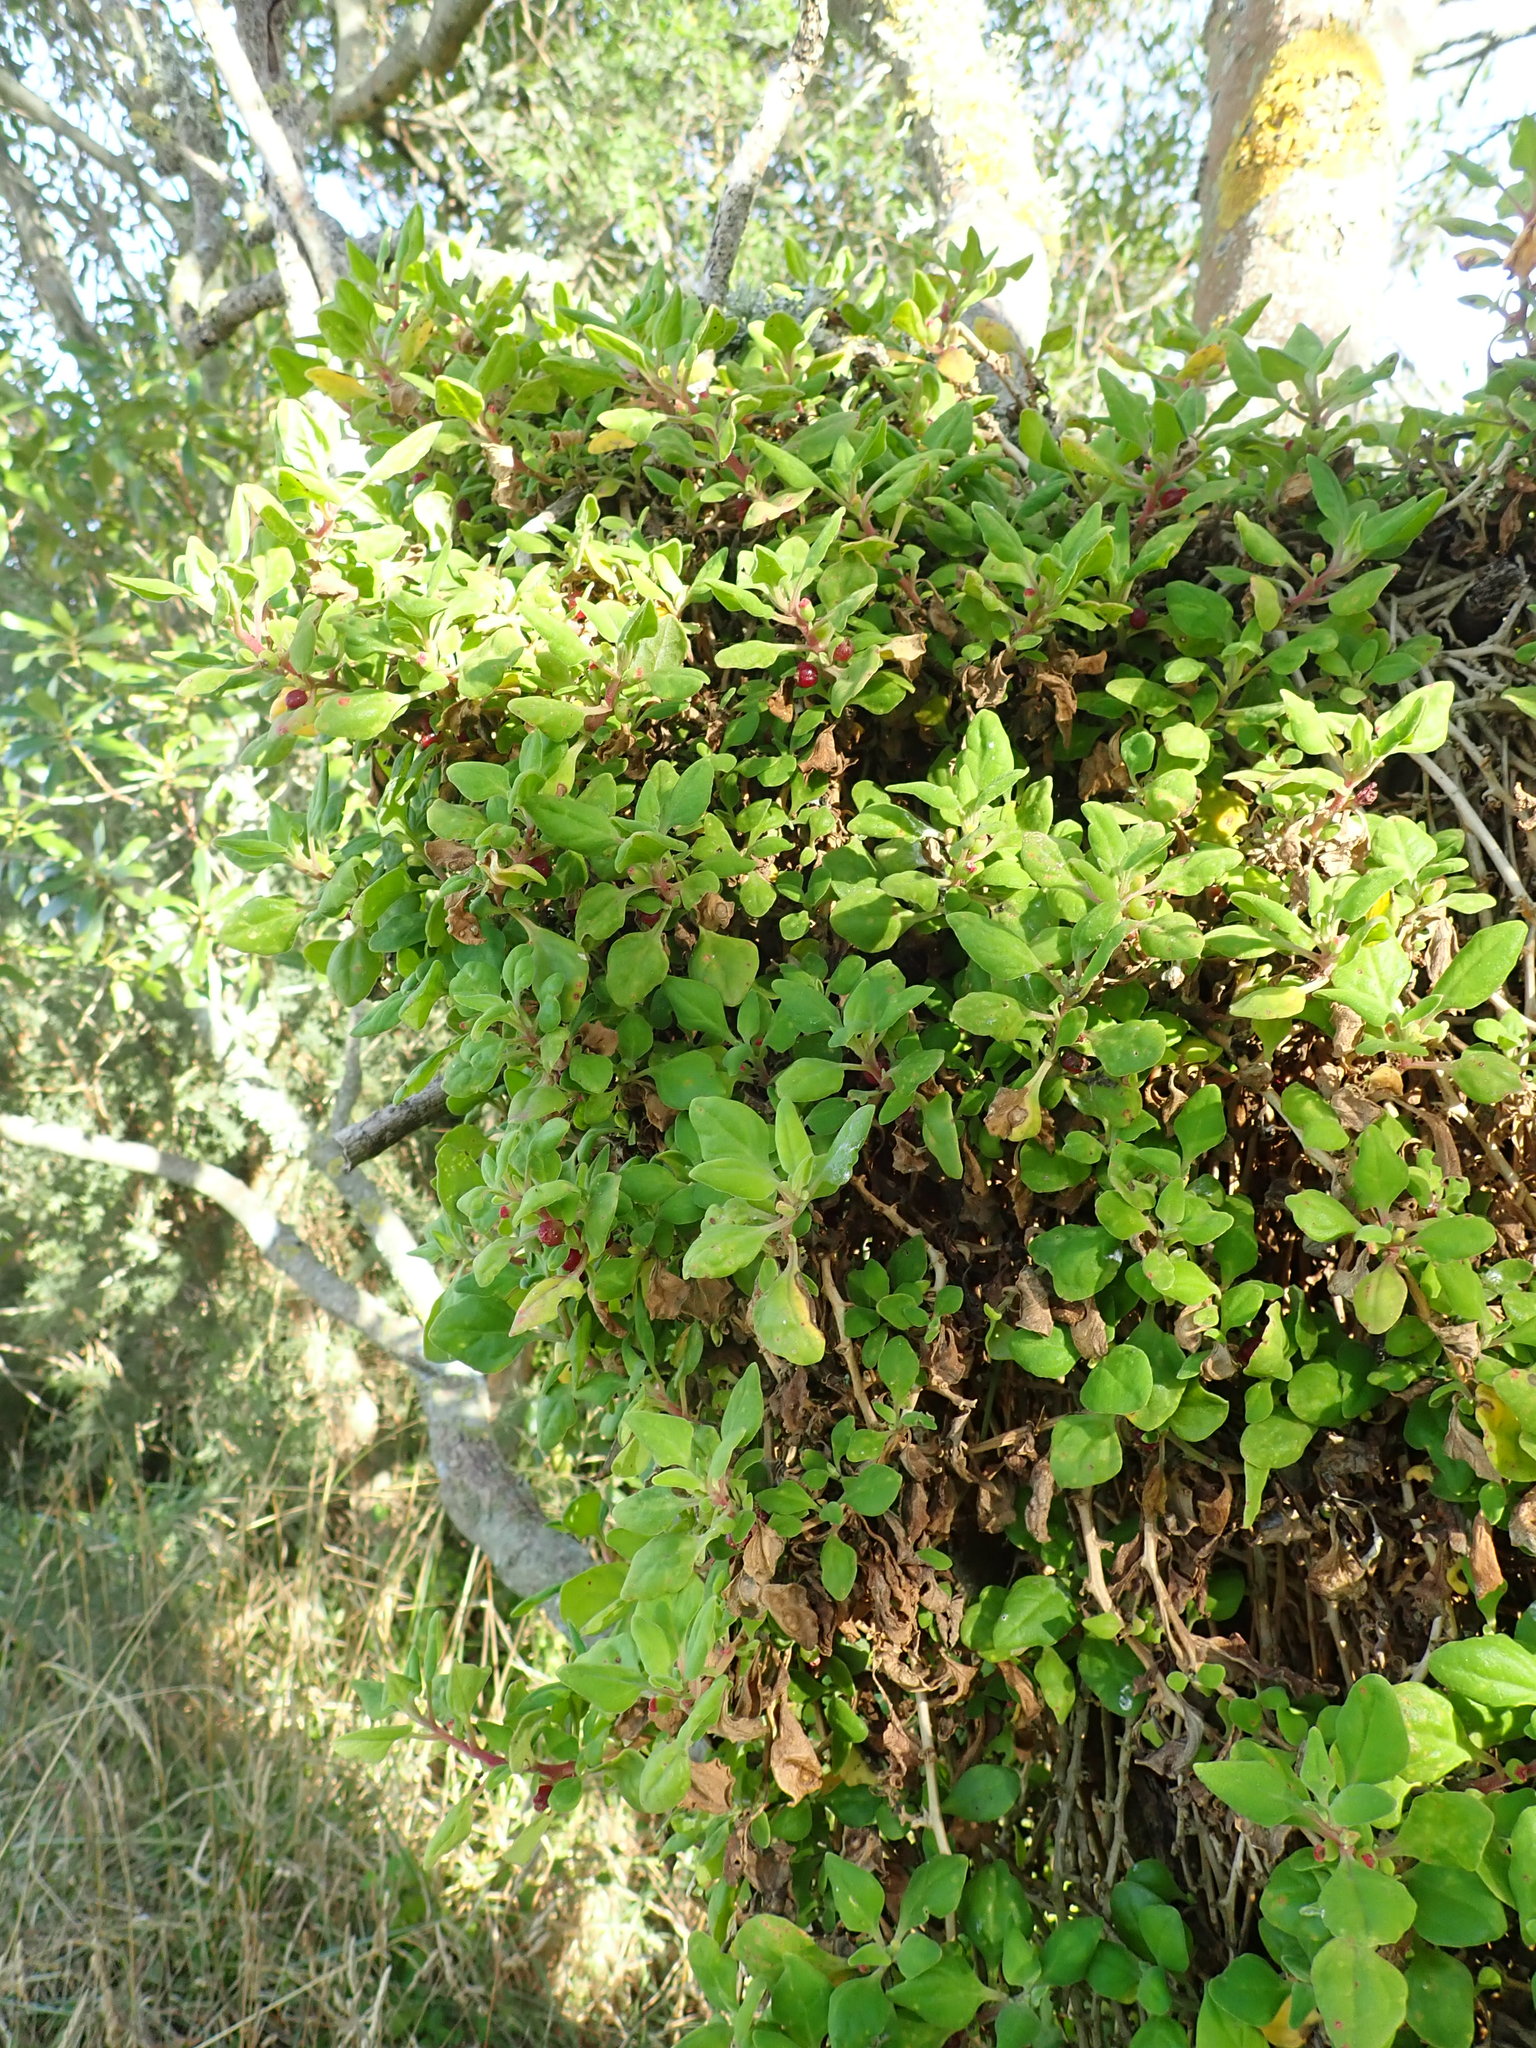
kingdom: Plantae
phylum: Tracheophyta
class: Magnoliopsida
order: Caryophyllales
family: Aizoaceae
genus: Tetragonia
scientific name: Tetragonia implexicoma
